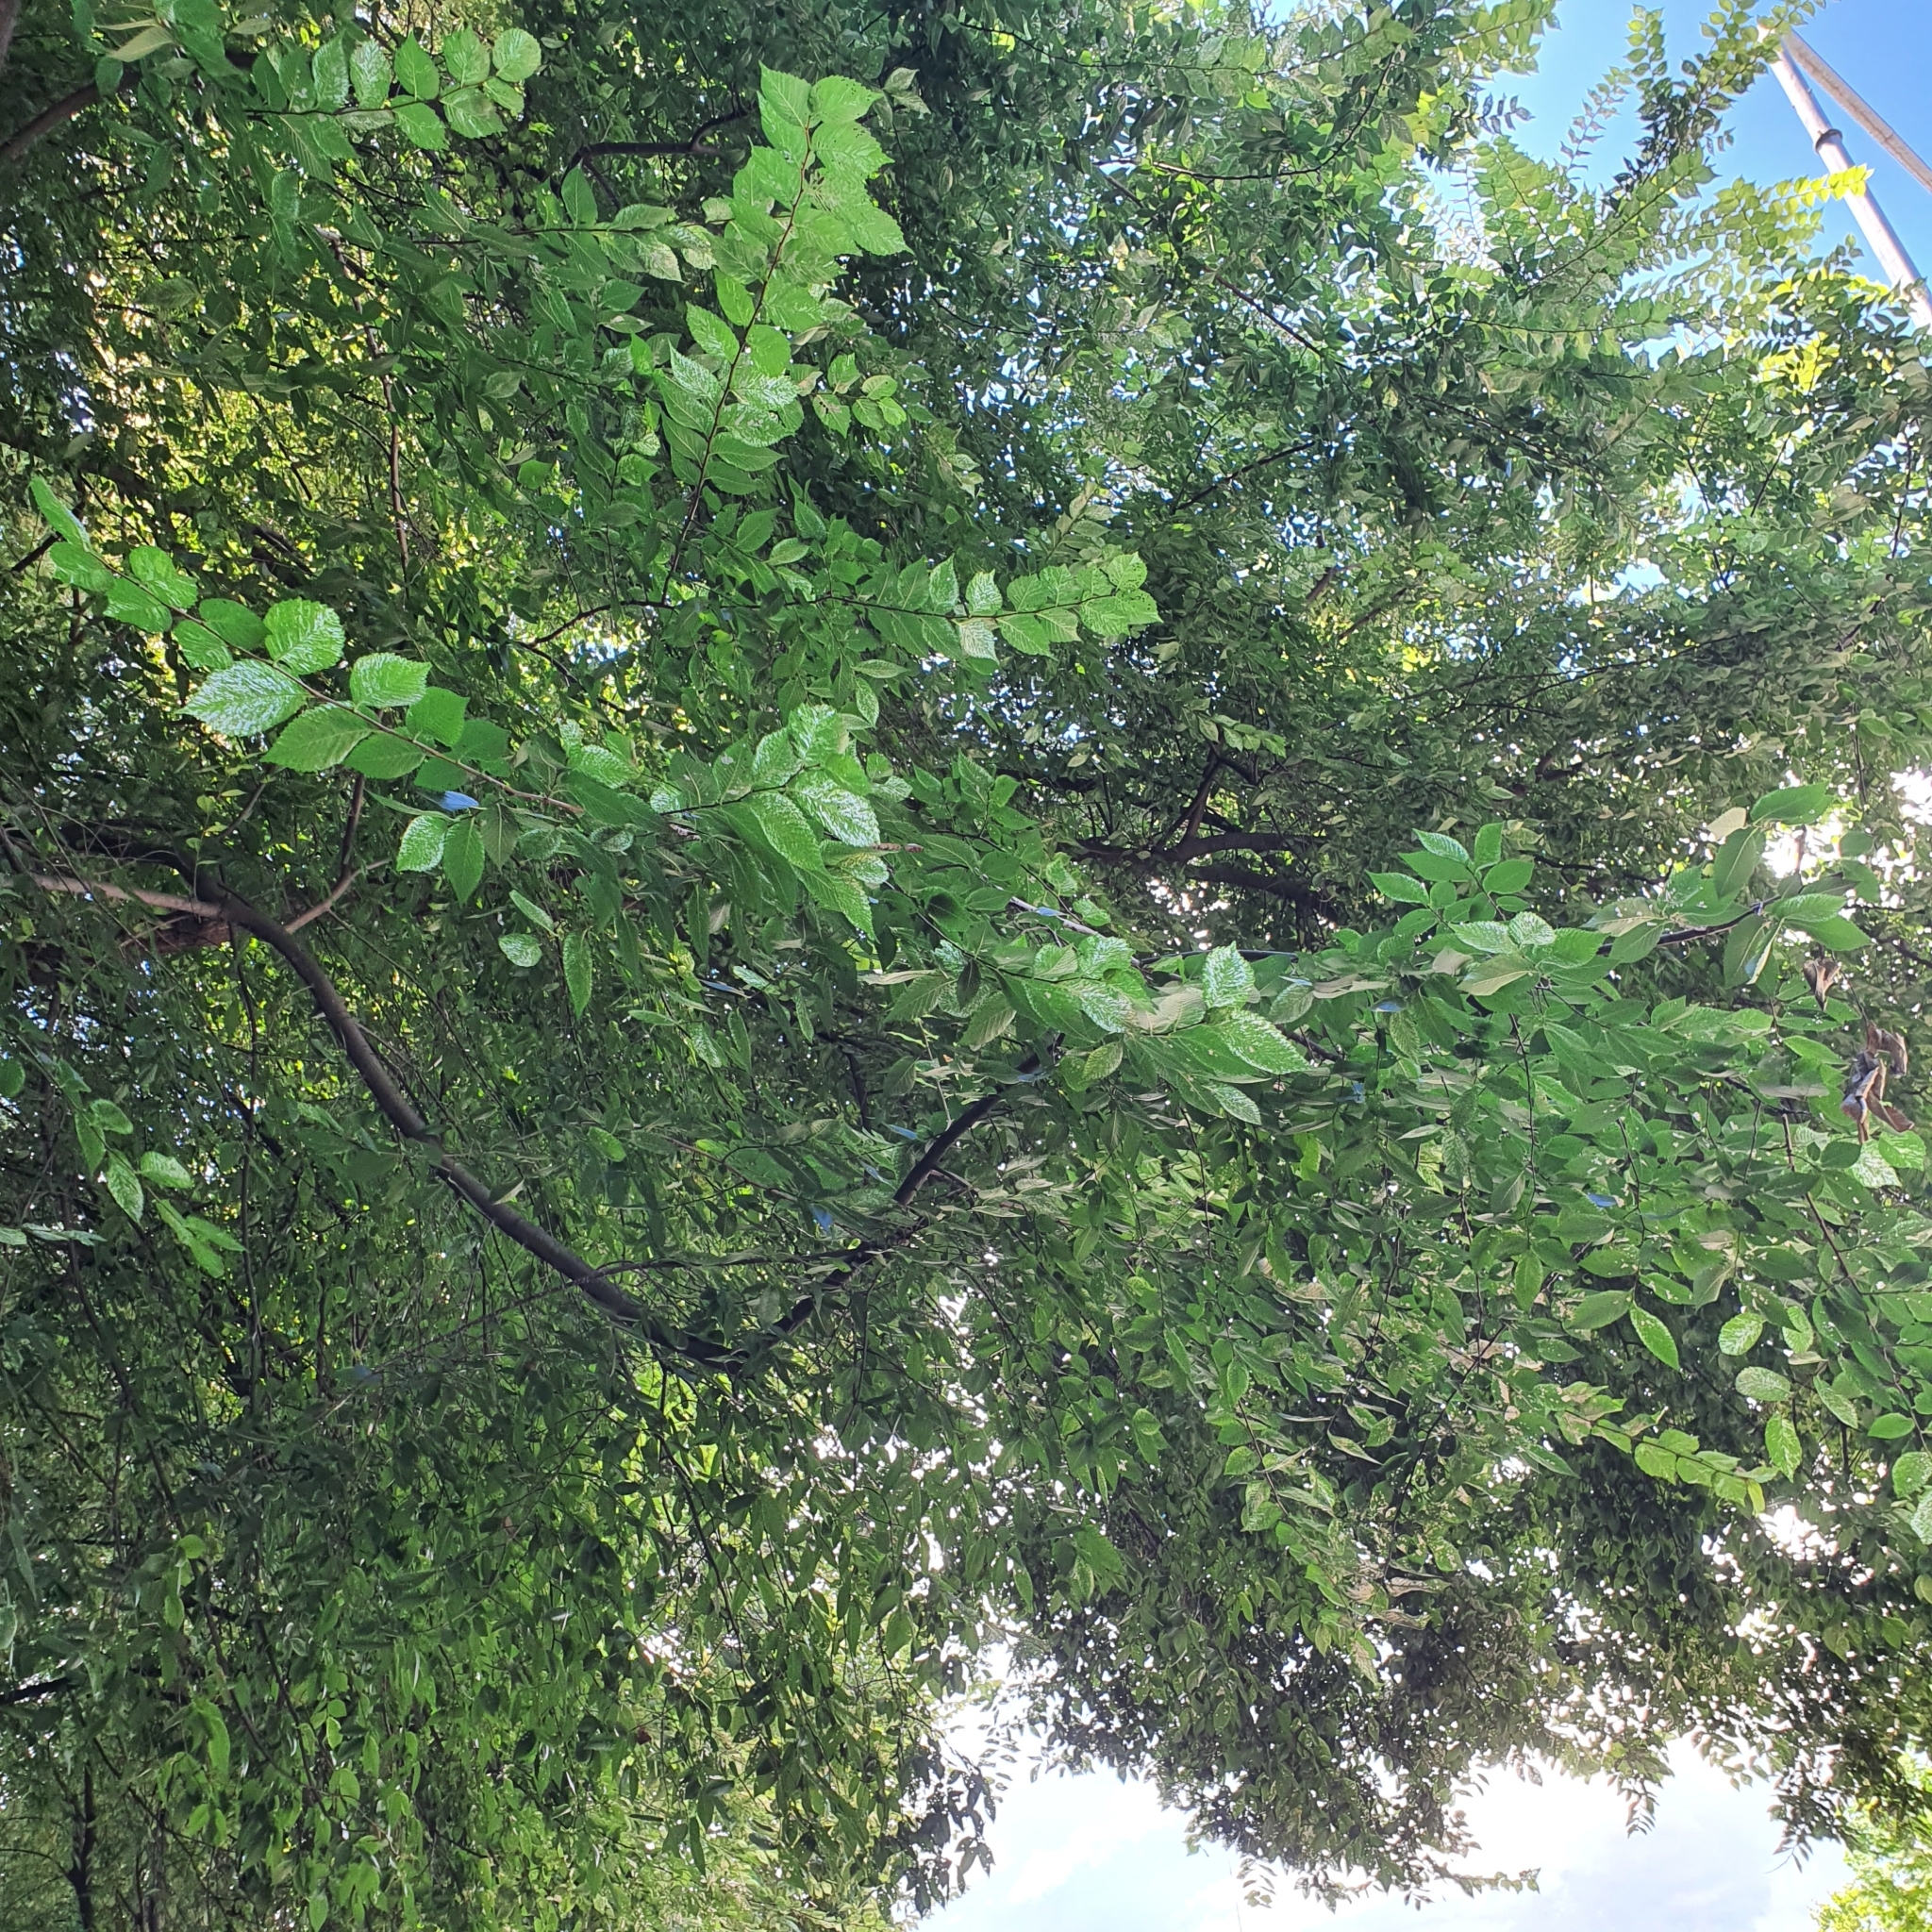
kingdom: Animalia
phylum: Arthropoda
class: Insecta
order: Coleoptera
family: Chrysomelidae
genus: Xanthogaleruca
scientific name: Xanthogaleruca luteola
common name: Elm leaf beetle
